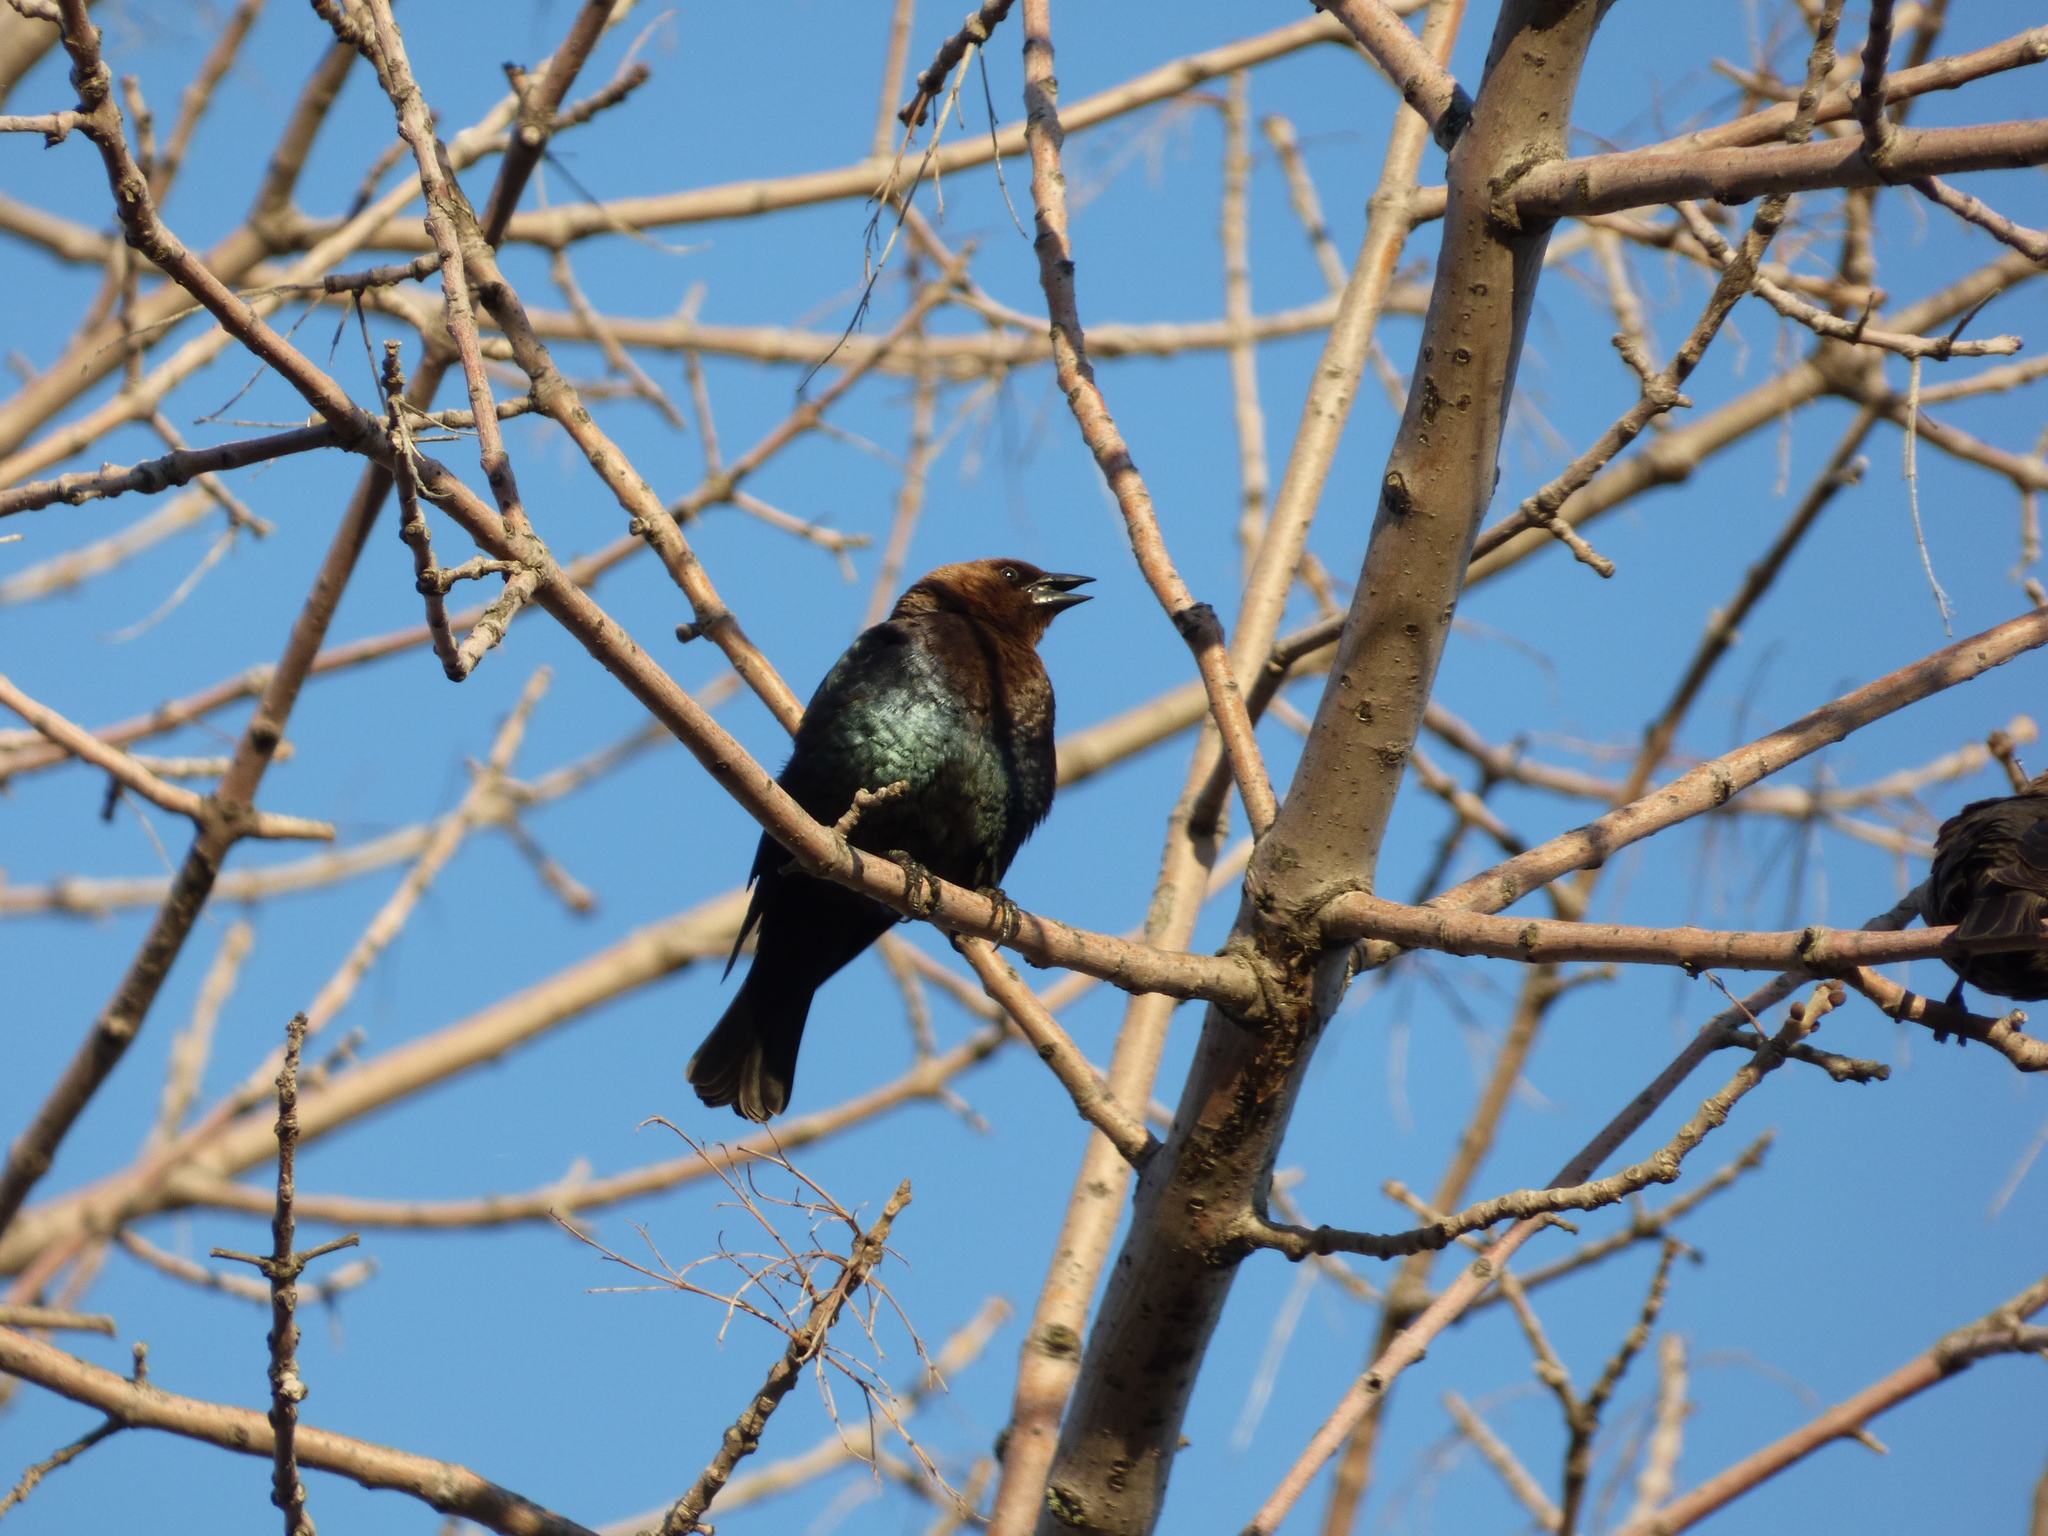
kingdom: Animalia
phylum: Chordata
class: Aves
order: Passeriformes
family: Icteridae
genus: Molothrus
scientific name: Molothrus ater
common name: Brown-headed cowbird
